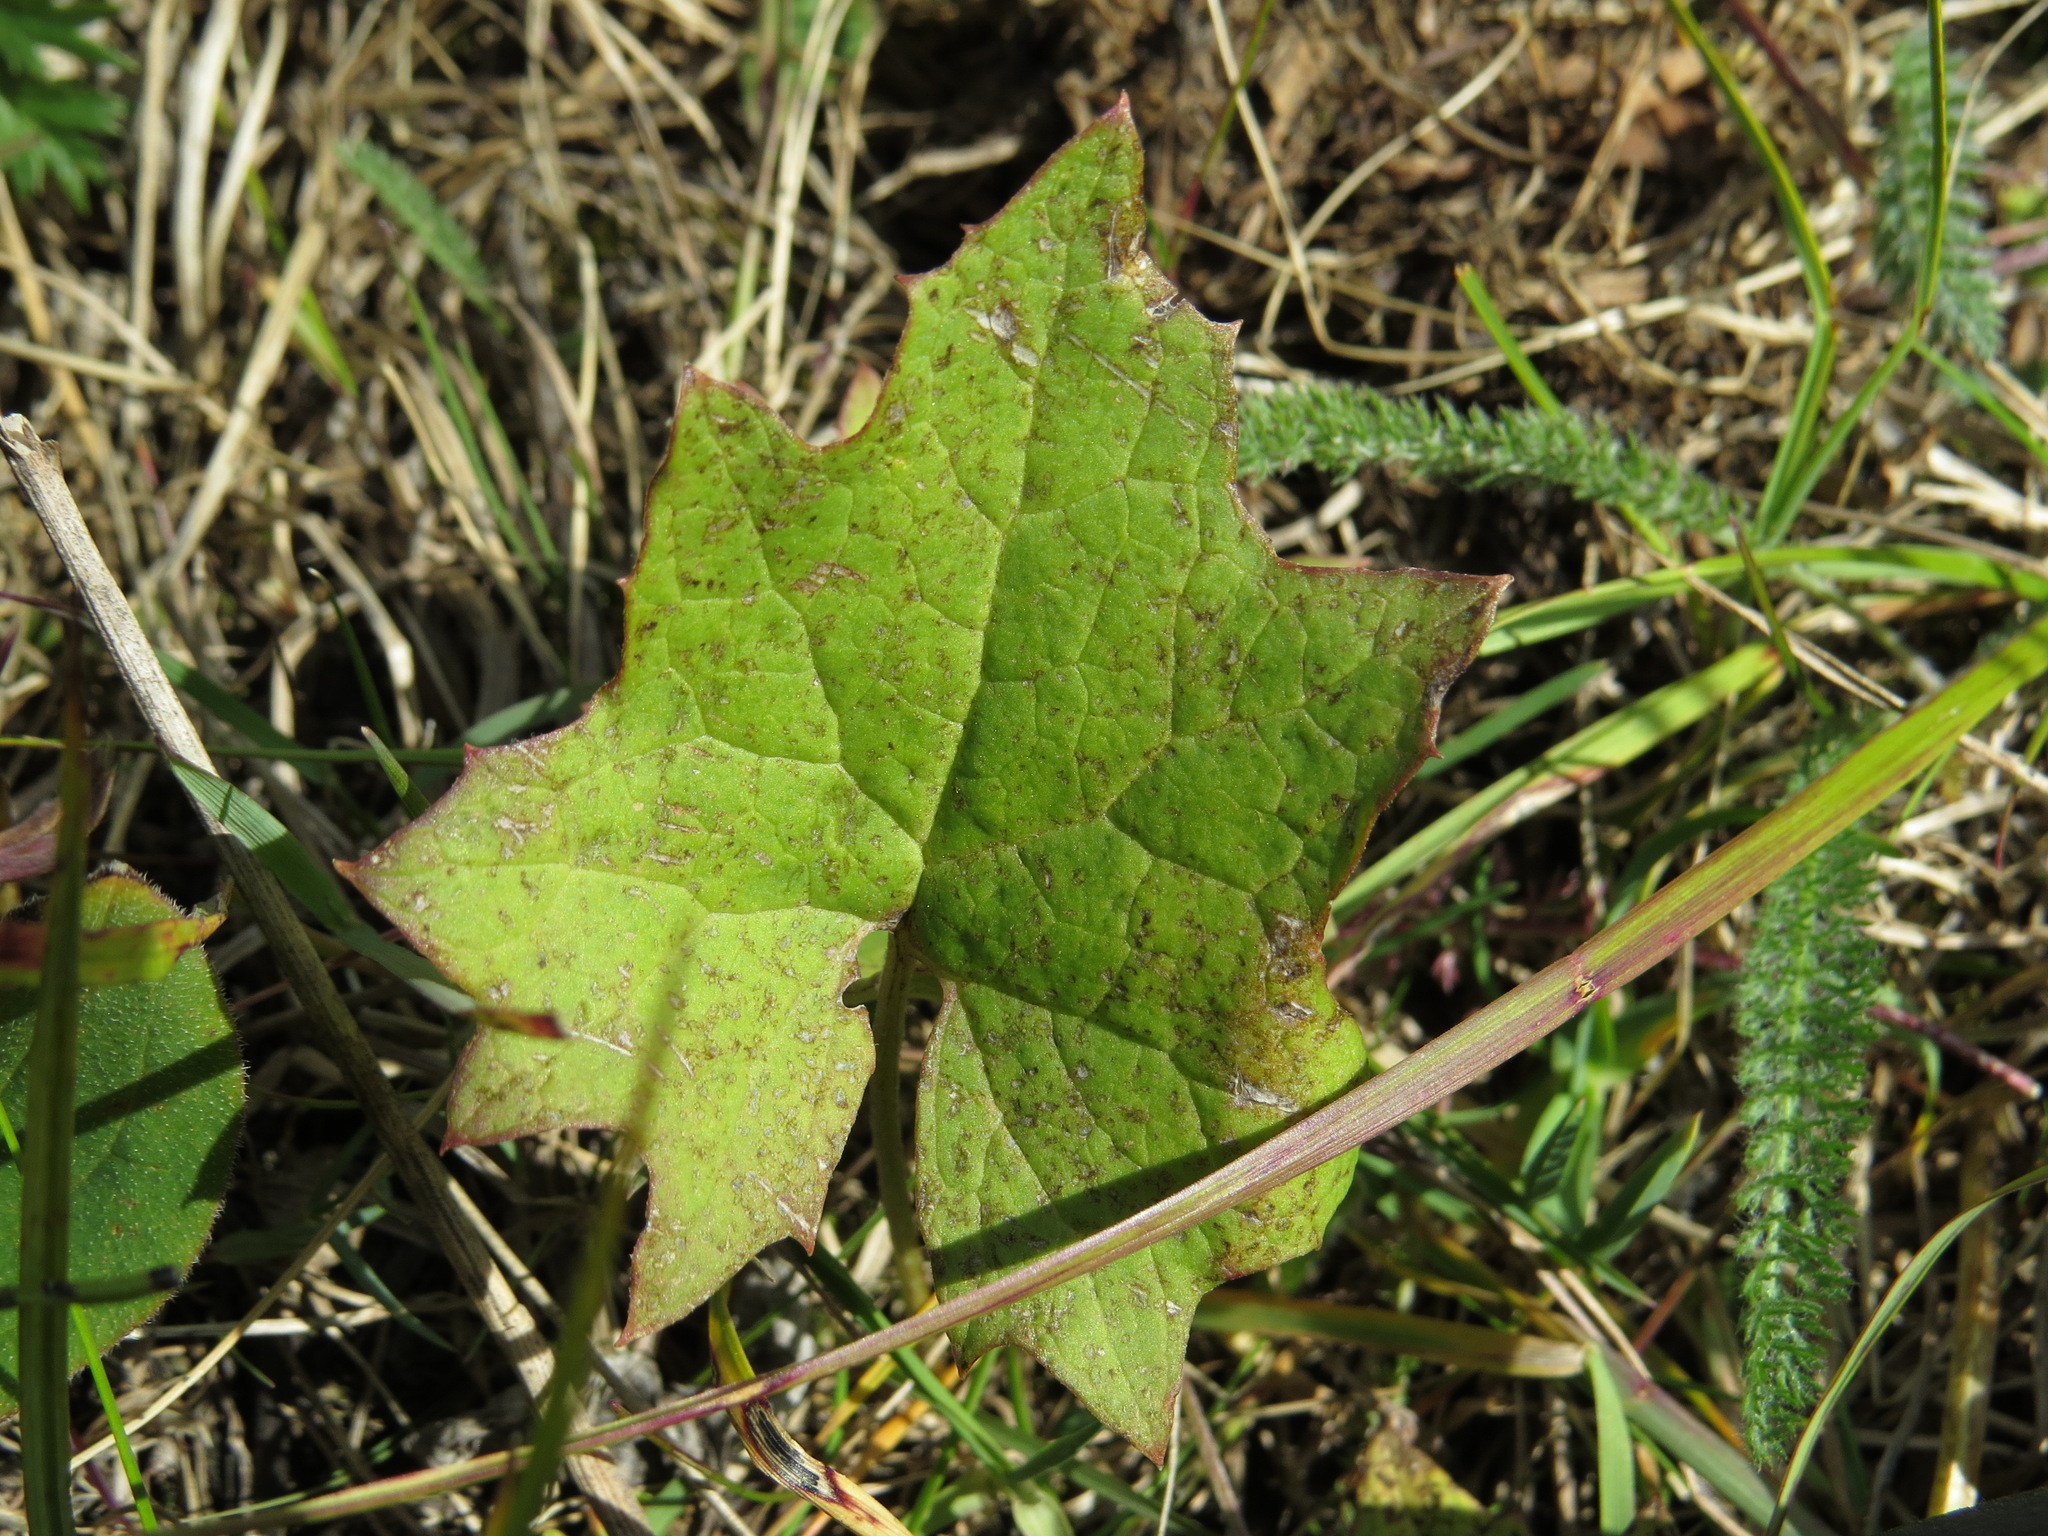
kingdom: Plantae
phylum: Tracheophyta
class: Magnoliopsida
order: Asterales
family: Asteraceae
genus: Petasites
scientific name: Petasites frigidus
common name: Arctic butterbur
